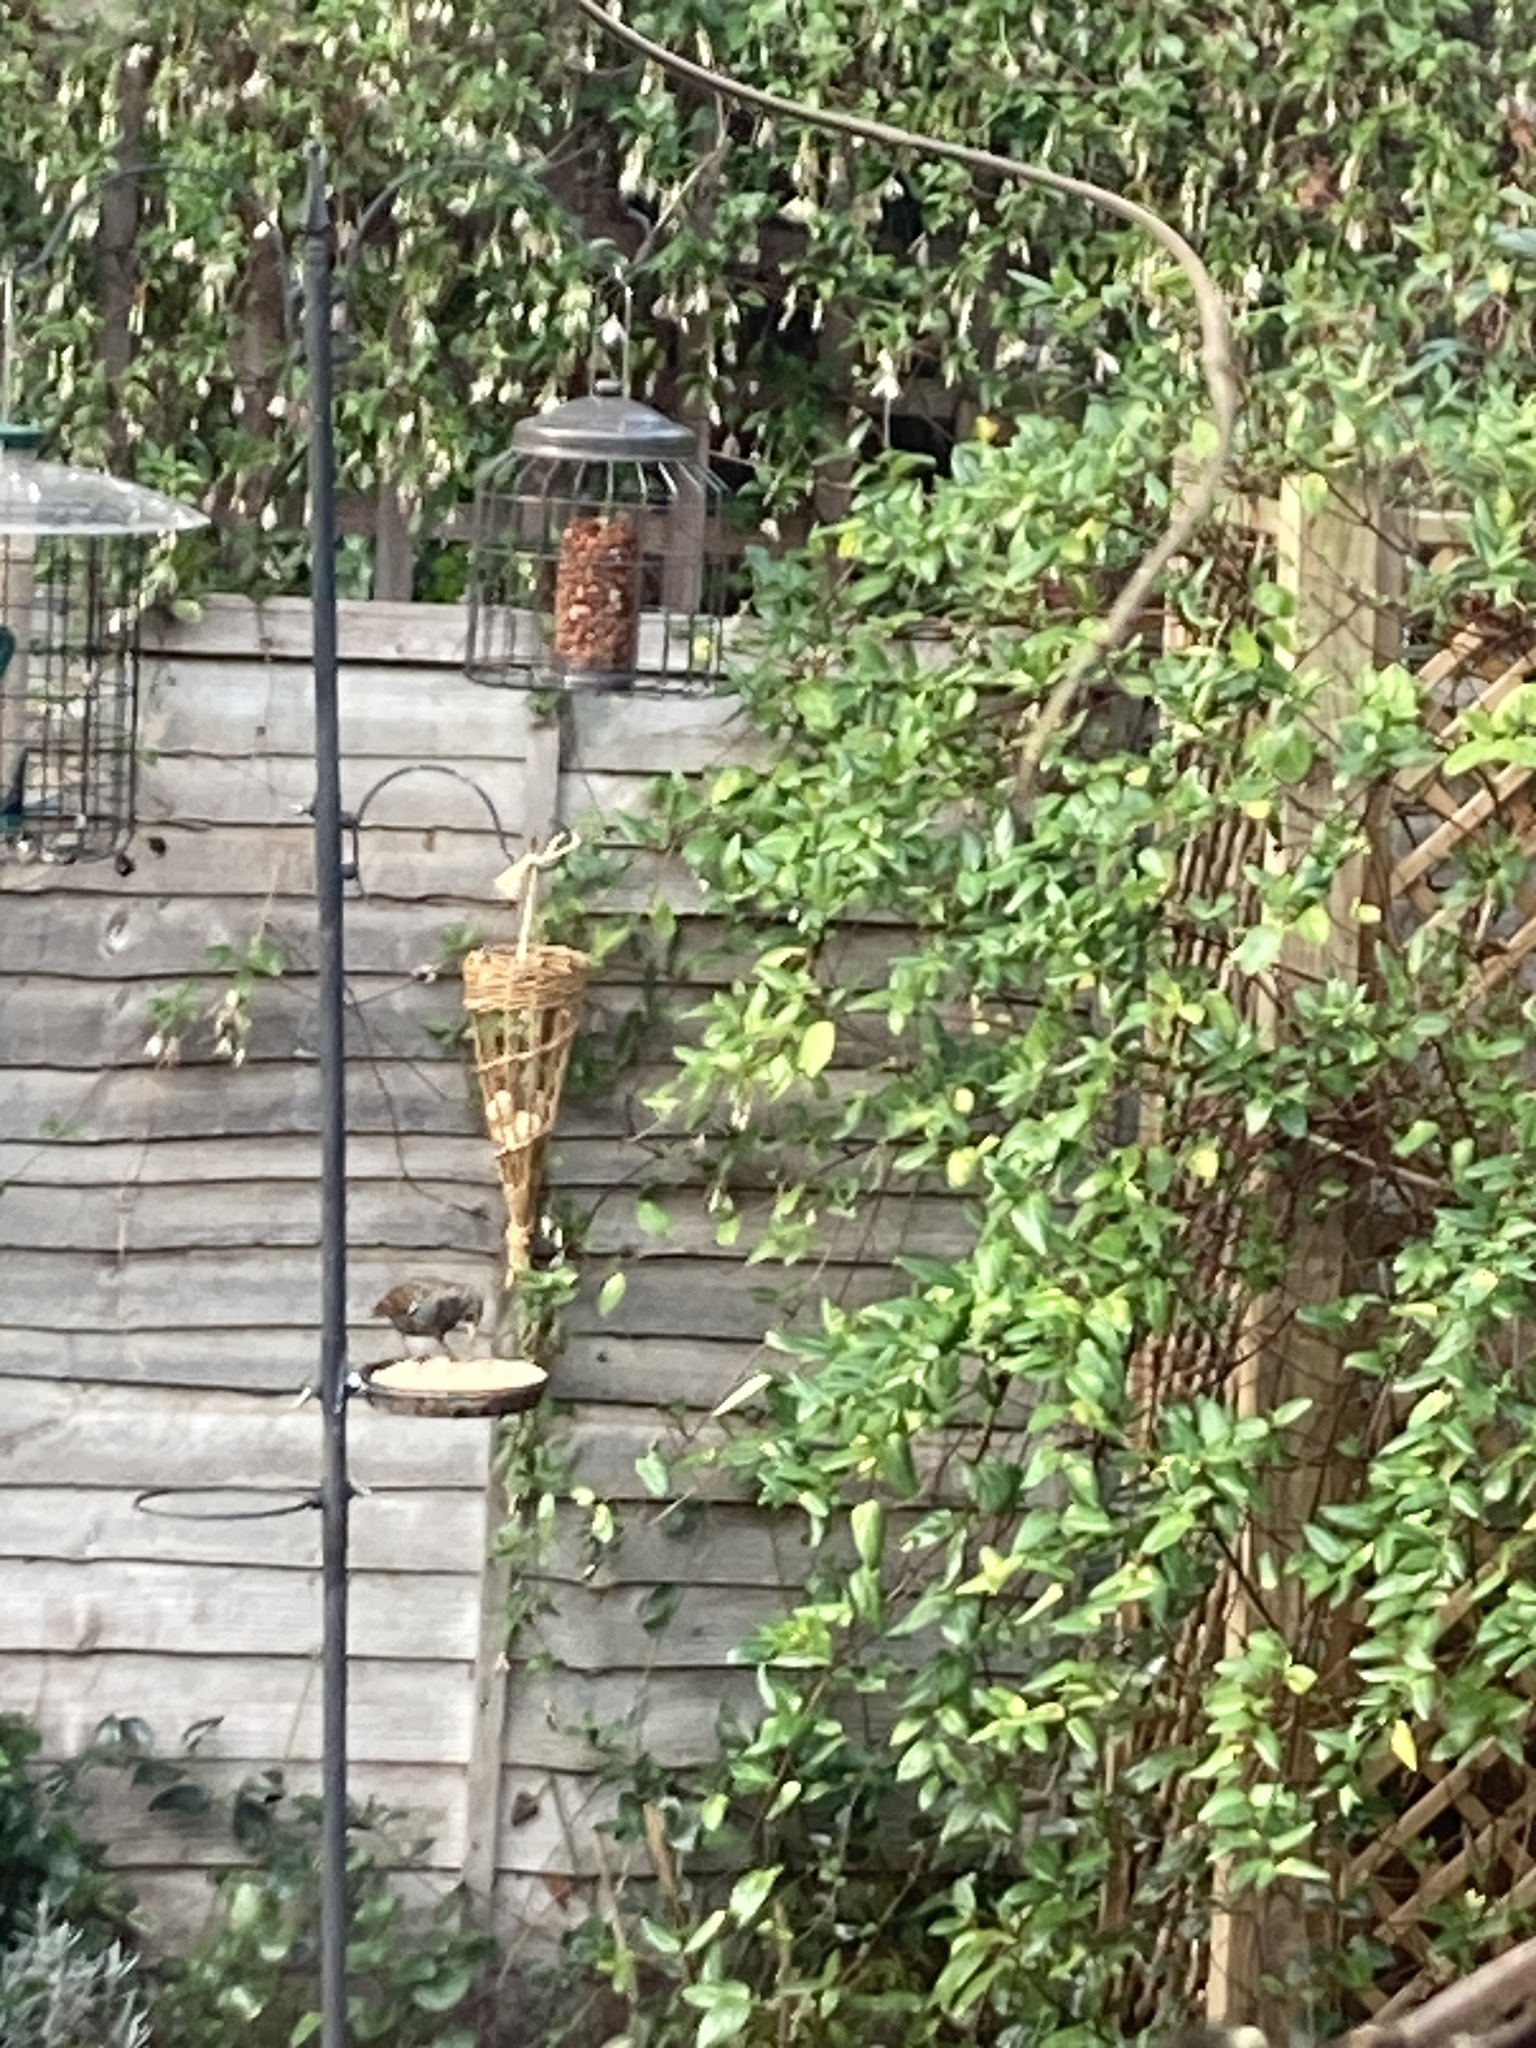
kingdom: Animalia
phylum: Chordata
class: Aves
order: Passeriformes
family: Sturnidae
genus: Sturnus
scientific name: Sturnus vulgaris
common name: Common starling
